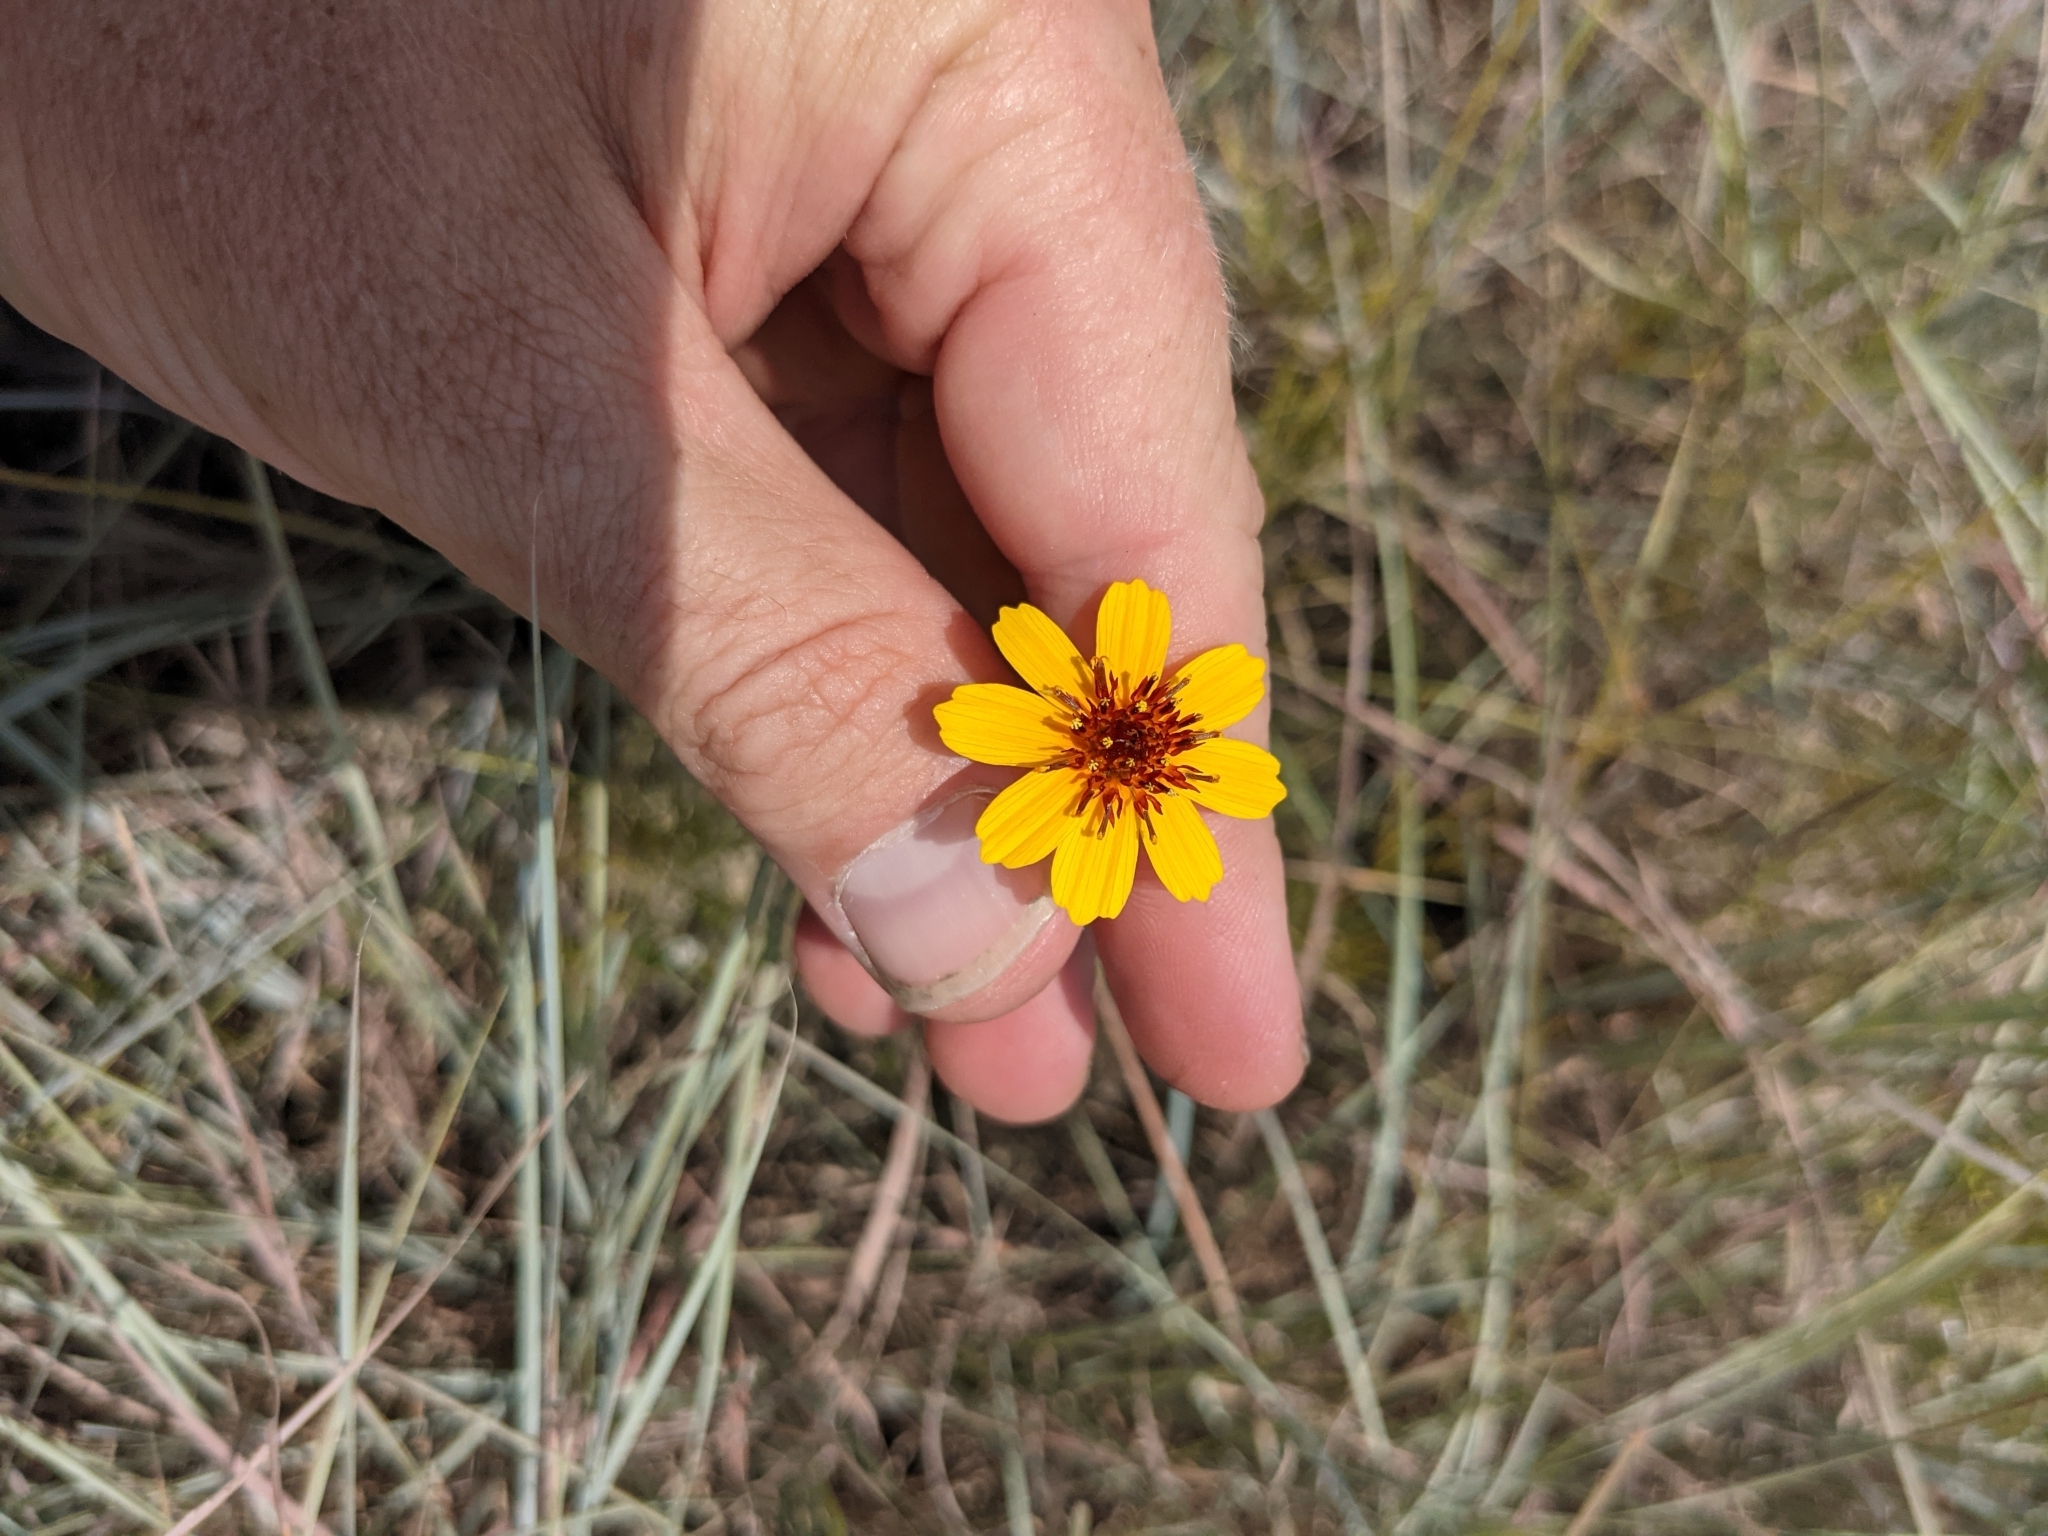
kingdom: Plantae
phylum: Tracheophyta
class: Magnoliopsida
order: Asterales
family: Asteraceae
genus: Thelesperma
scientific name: Thelesperma filifolium
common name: Stiff greenthread
